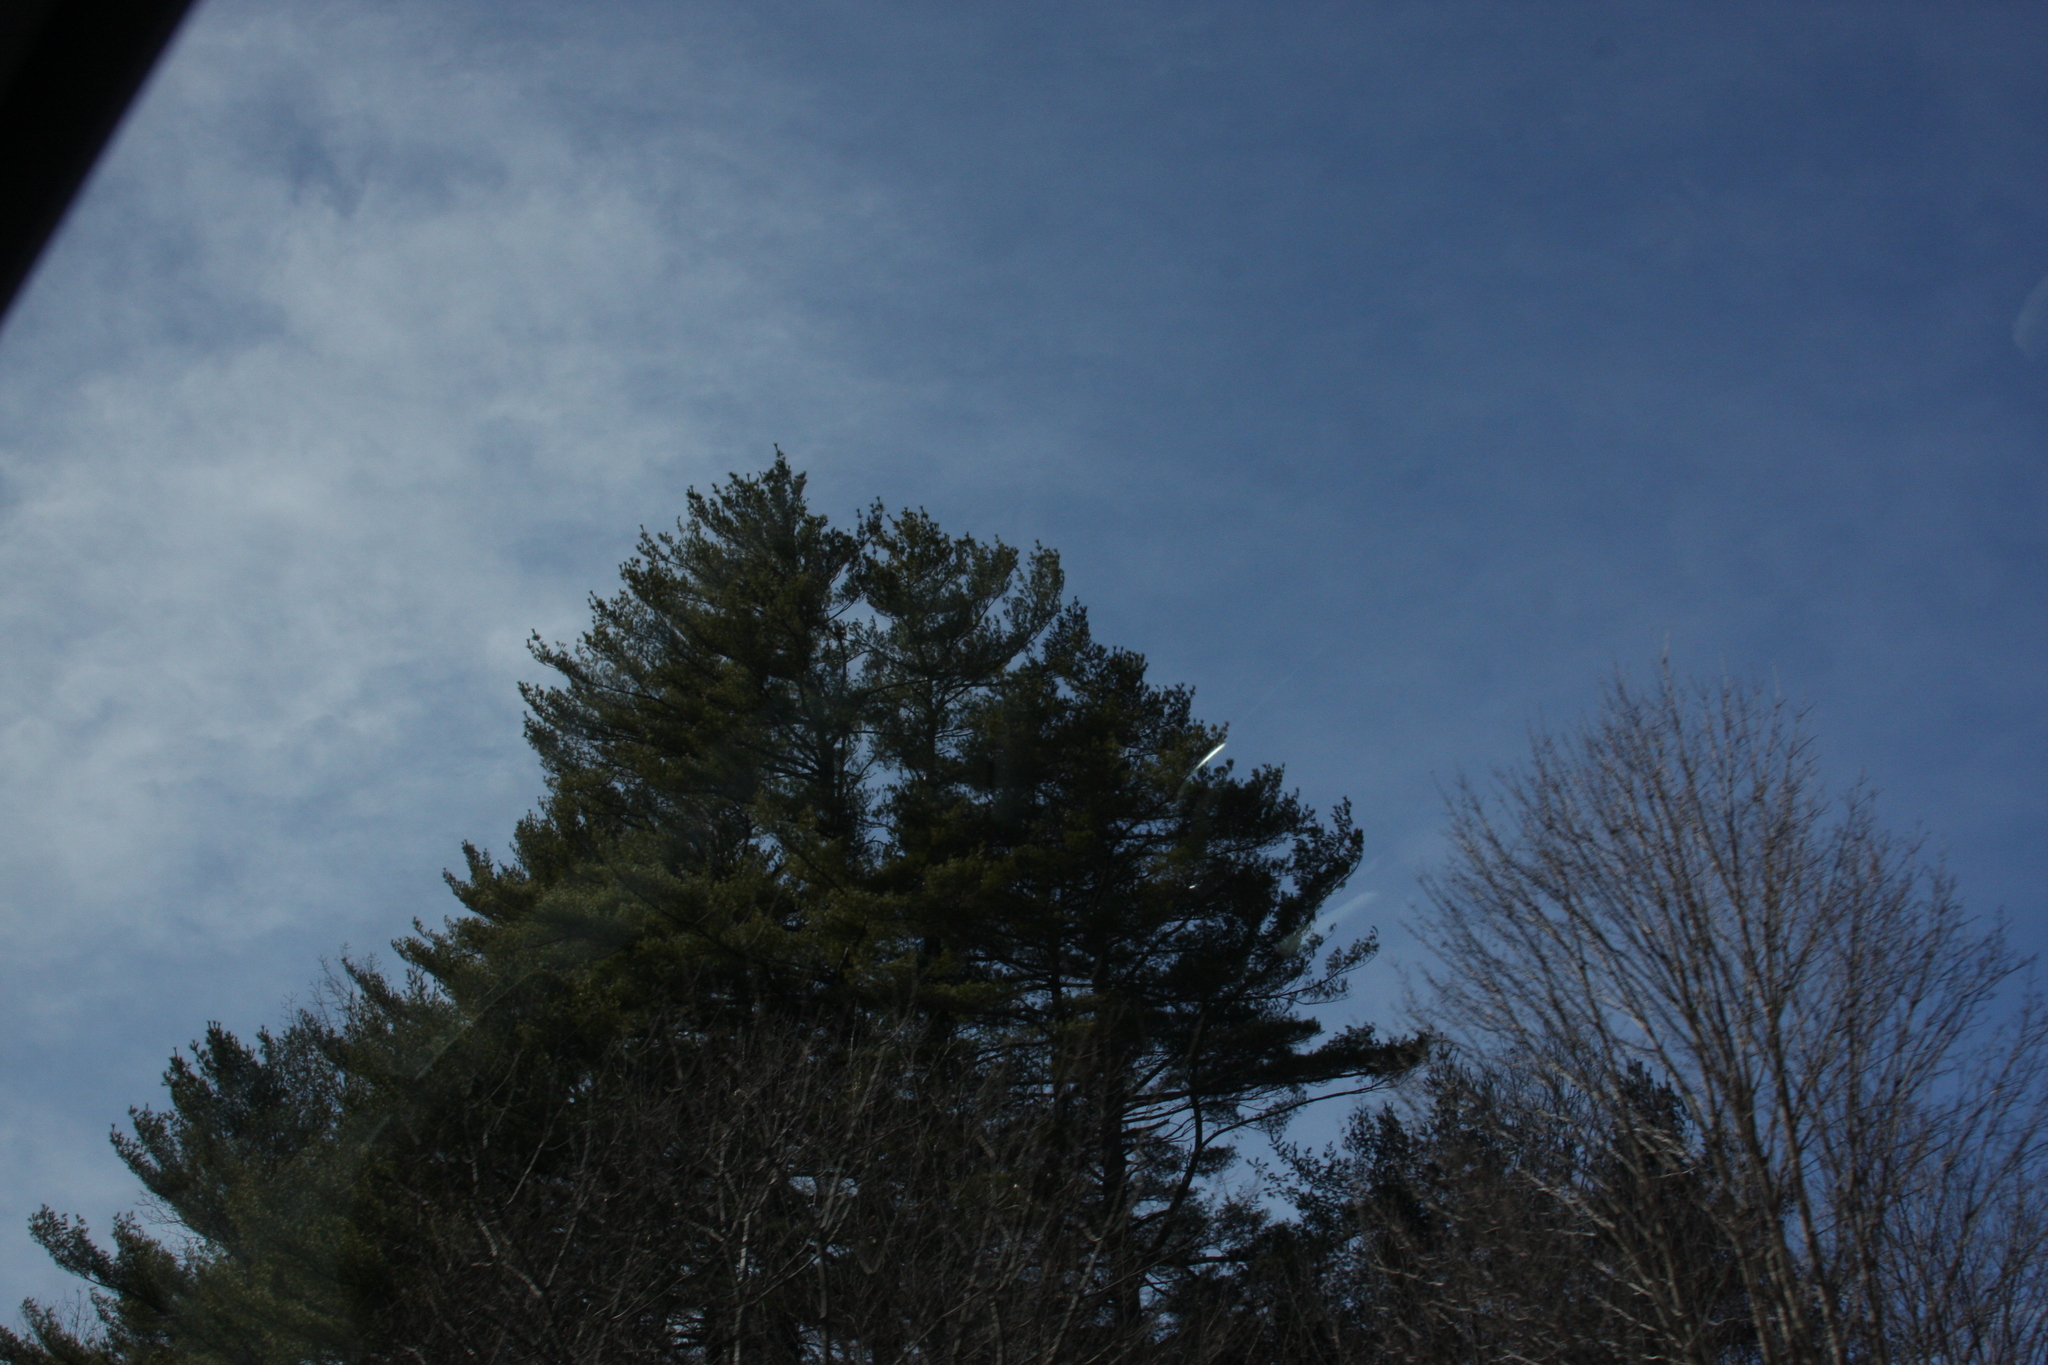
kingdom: Plantae
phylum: Tracheophyta
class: Pinopsida
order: Pinales
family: Pinaceae
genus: Pinus
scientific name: Pinus strobus
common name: Weymouth pine
